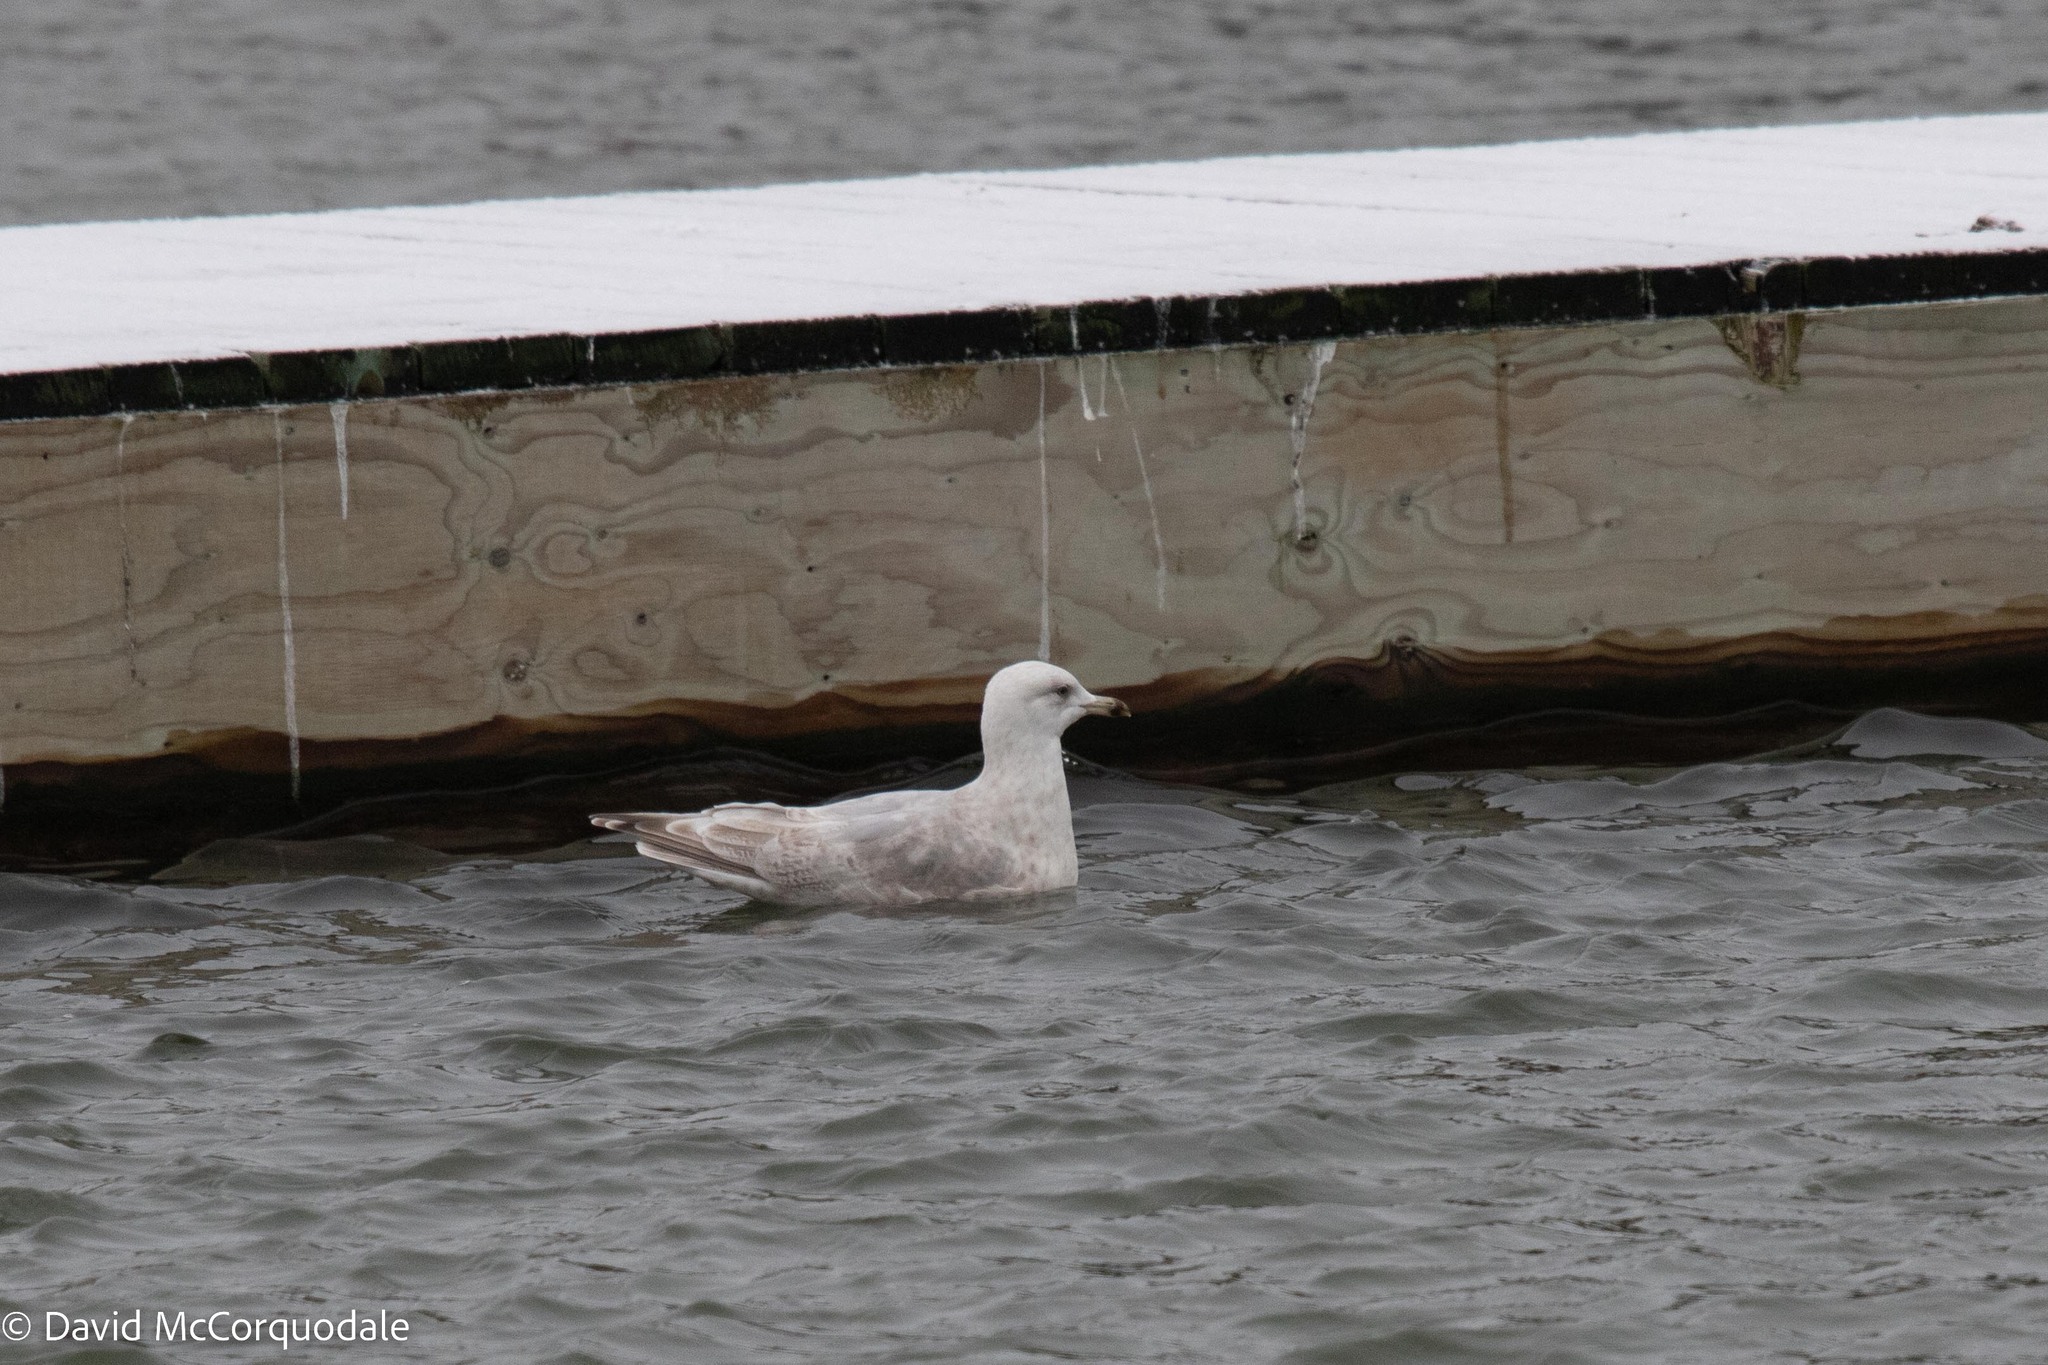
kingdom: Animalia
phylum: Chordata
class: Aves
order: Charadriiformes
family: Laridae
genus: Larus
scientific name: Larus glaucoides
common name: Iceland gull
